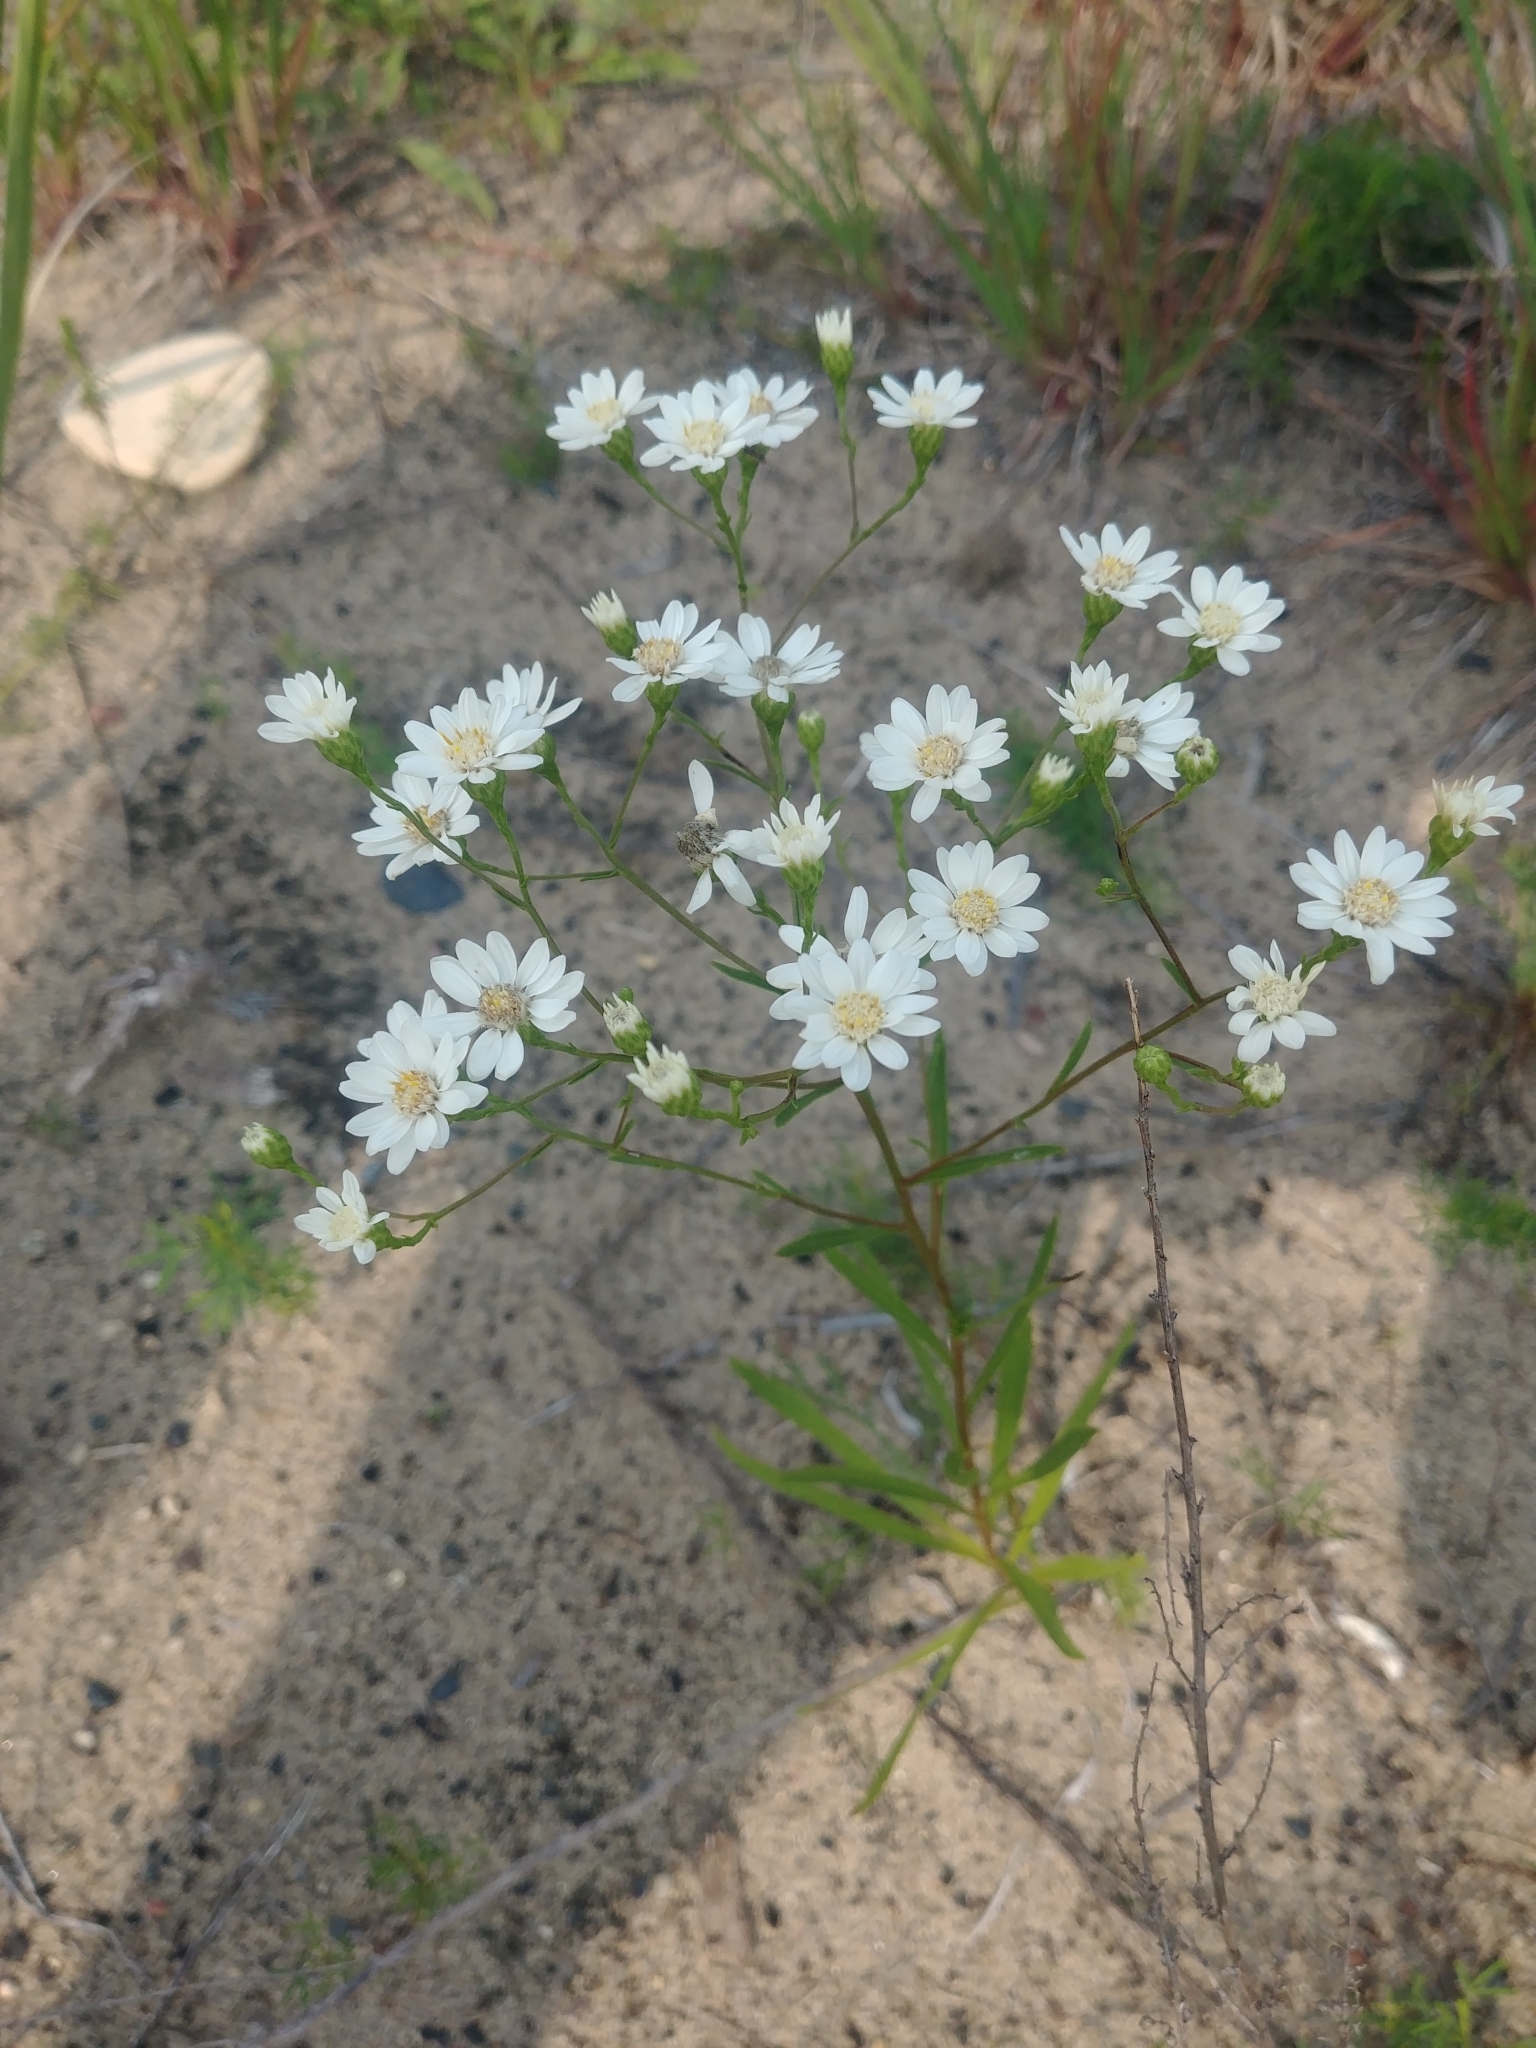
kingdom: Plantae
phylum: Tracheophyta
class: Magnoliopsida
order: Asterales
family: Asteraceae
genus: Solidago
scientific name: Solidago ptarmicoides
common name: White flat-top goldenrod
